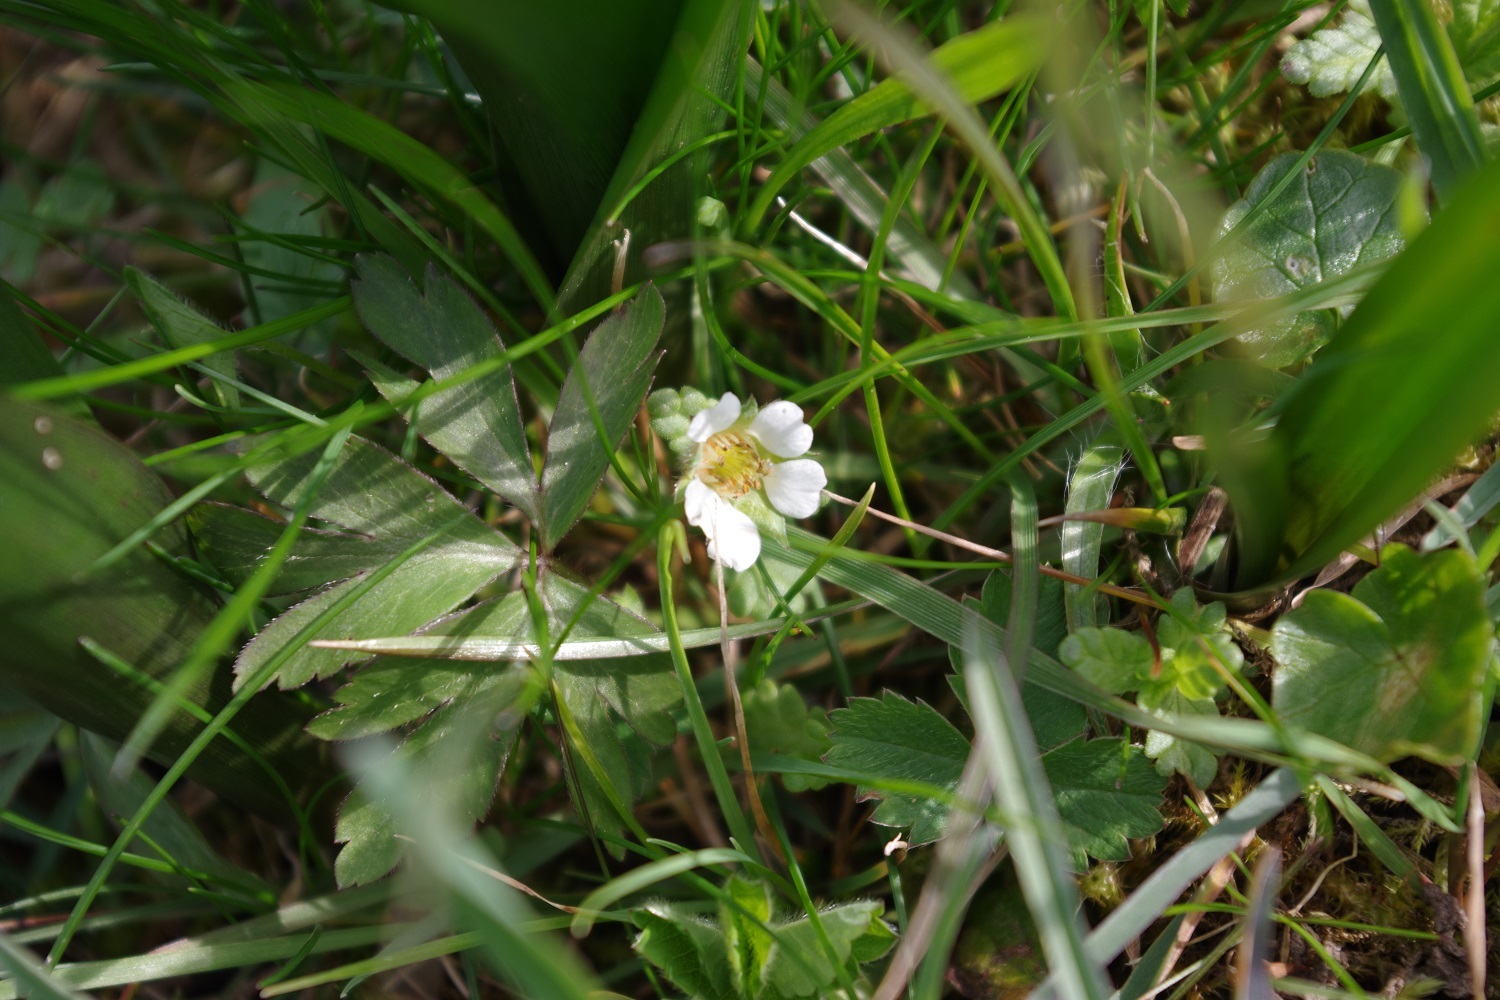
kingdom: Plantae
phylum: Tracheophyta
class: Magnoliopsida
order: Rosales
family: Rosaceae
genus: Potentilla
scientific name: Potentilla sterilis
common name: Barren strawberry
